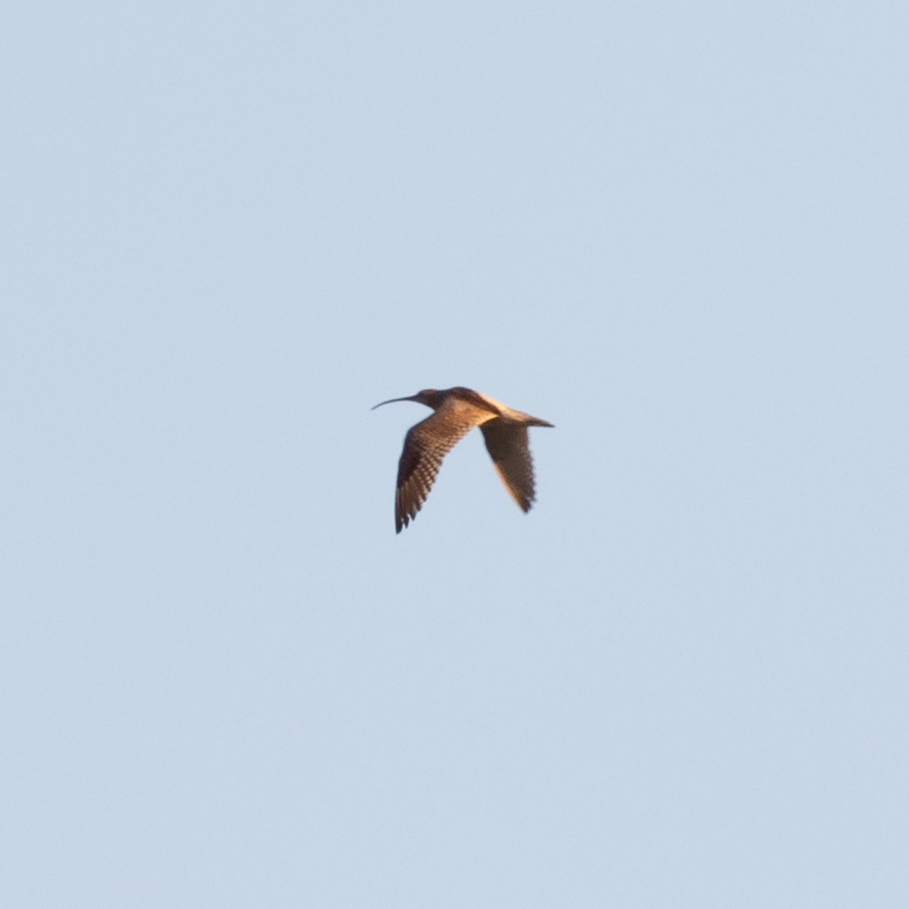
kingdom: Animalia
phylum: Chordata
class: Aves
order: Charadriiformes
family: Scolopacidae
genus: Numenius
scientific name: Numenius arquata
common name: Eurasian curlew
